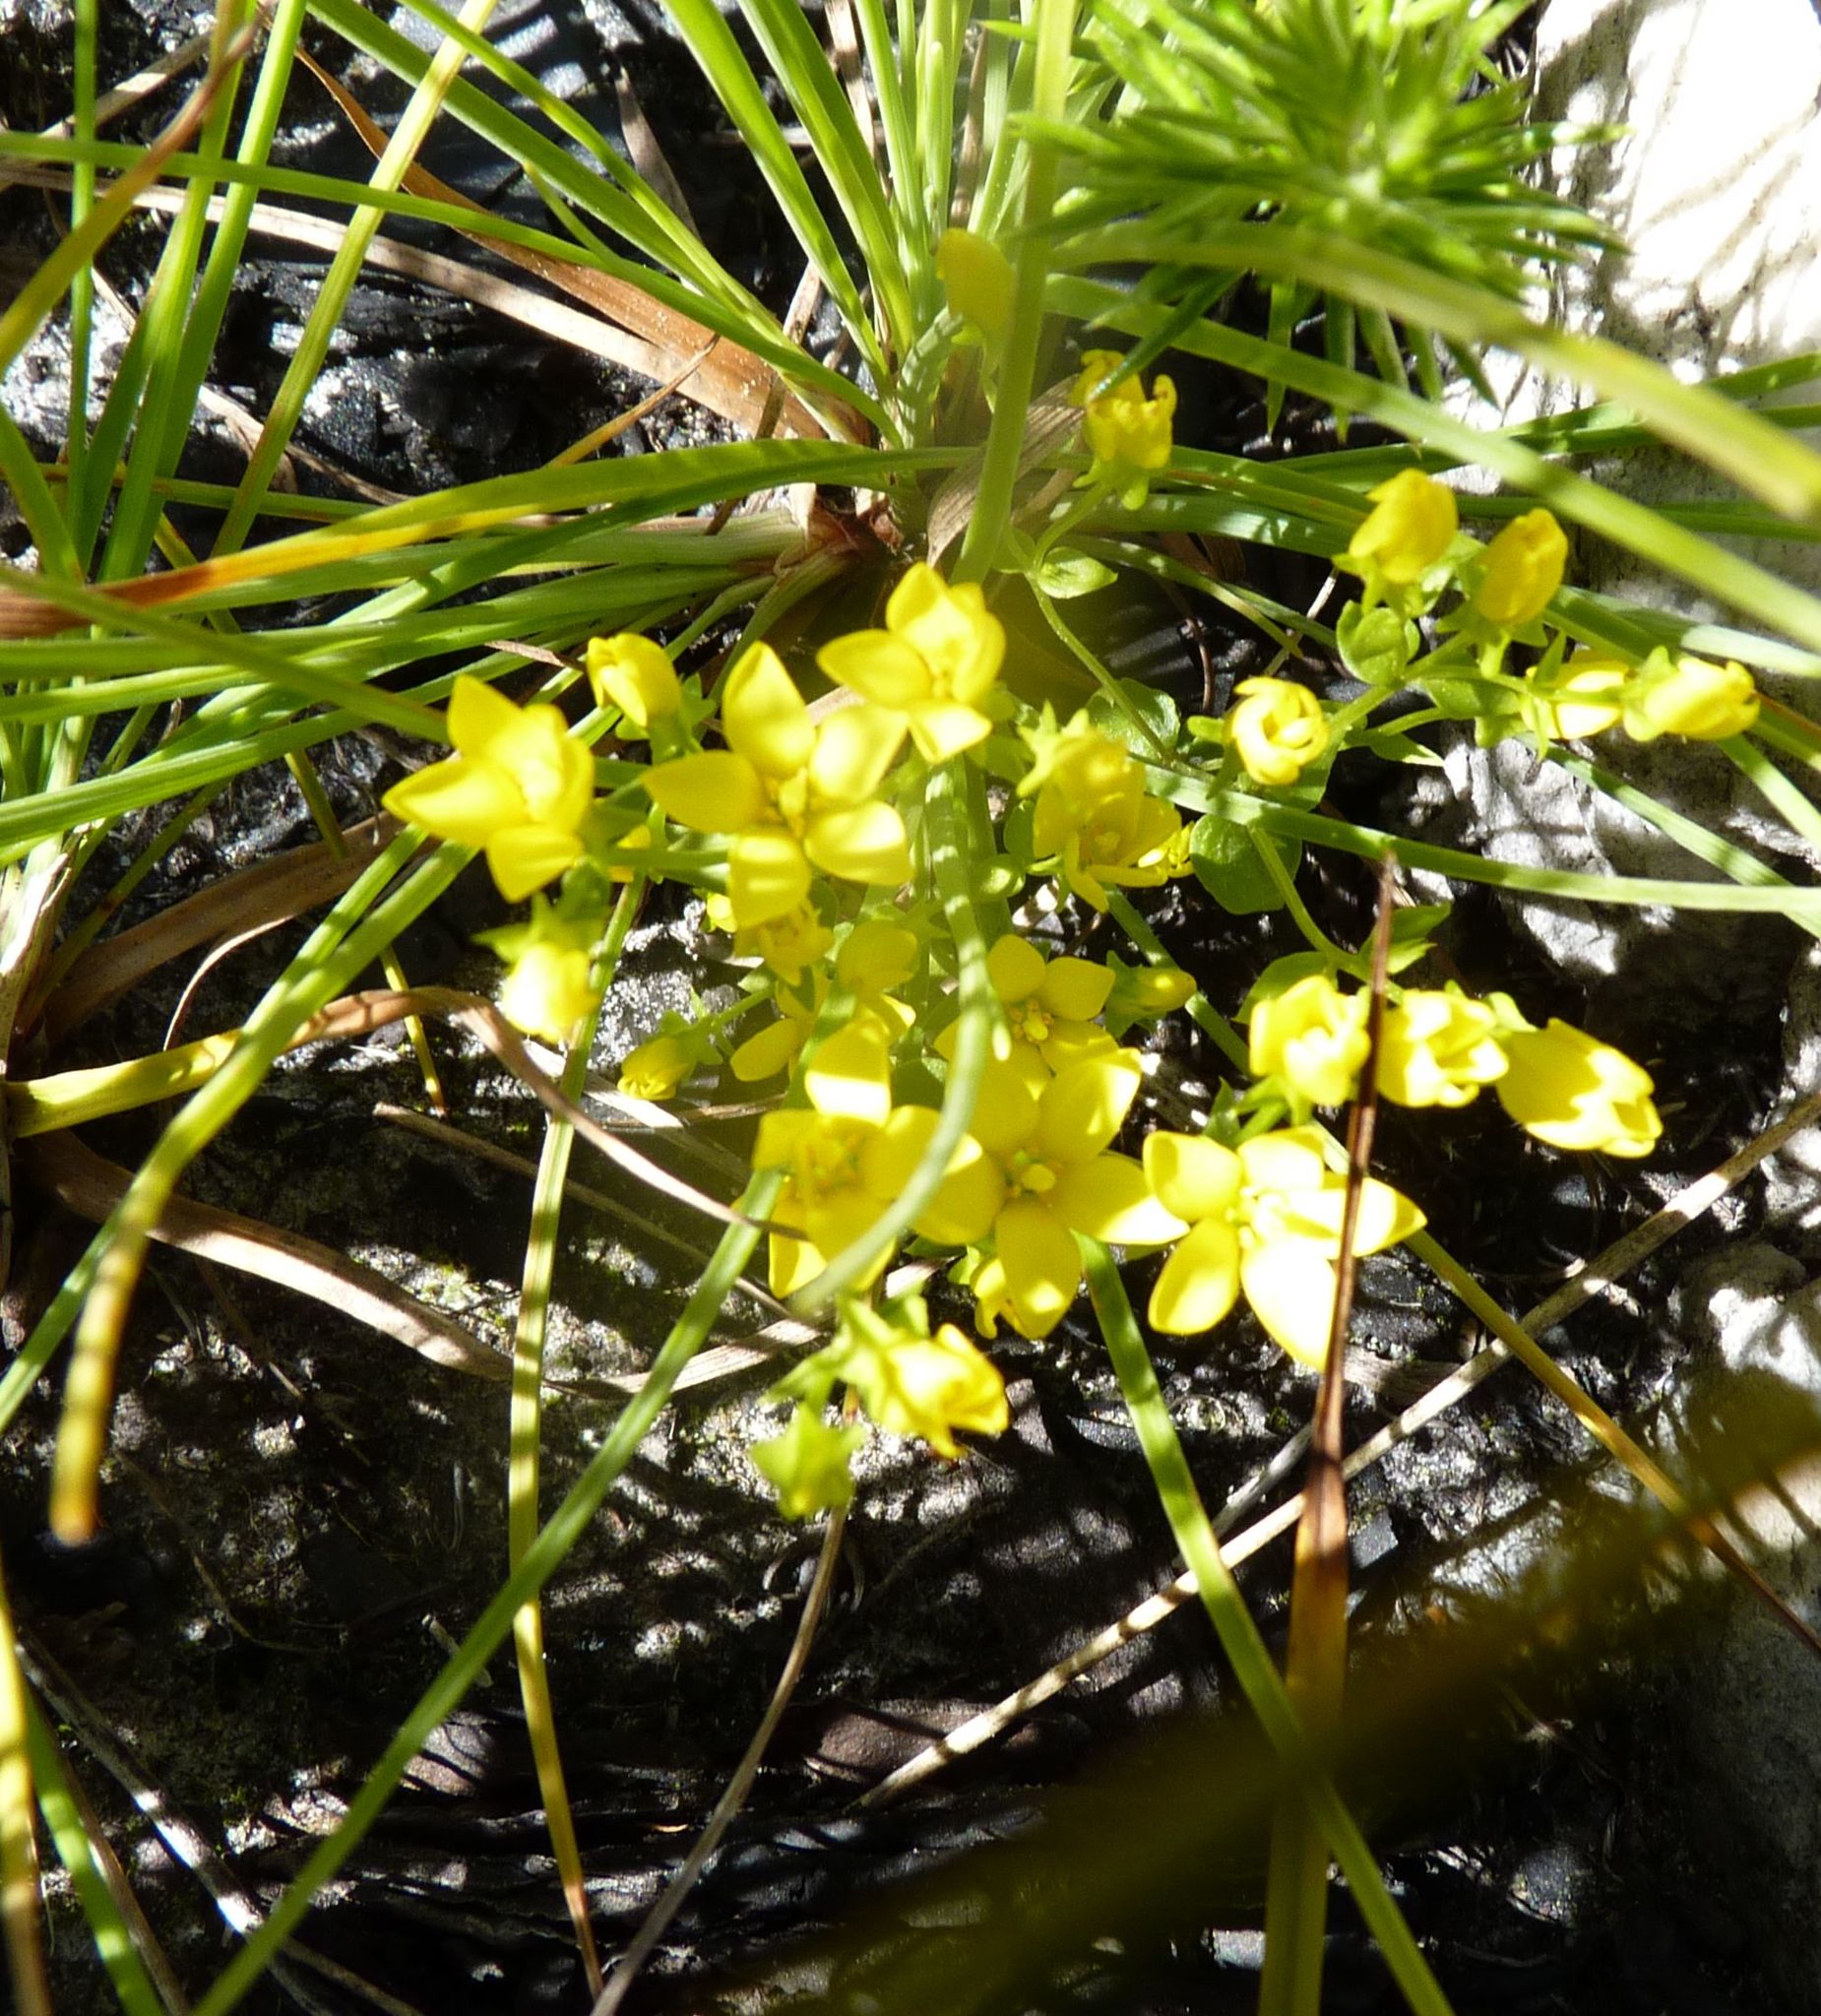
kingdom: Plantae
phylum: Tracheophyta
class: Magnoliopsida
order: Gentianales
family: Gentianaceae
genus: Sebaea
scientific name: Sebaea sulphurea
